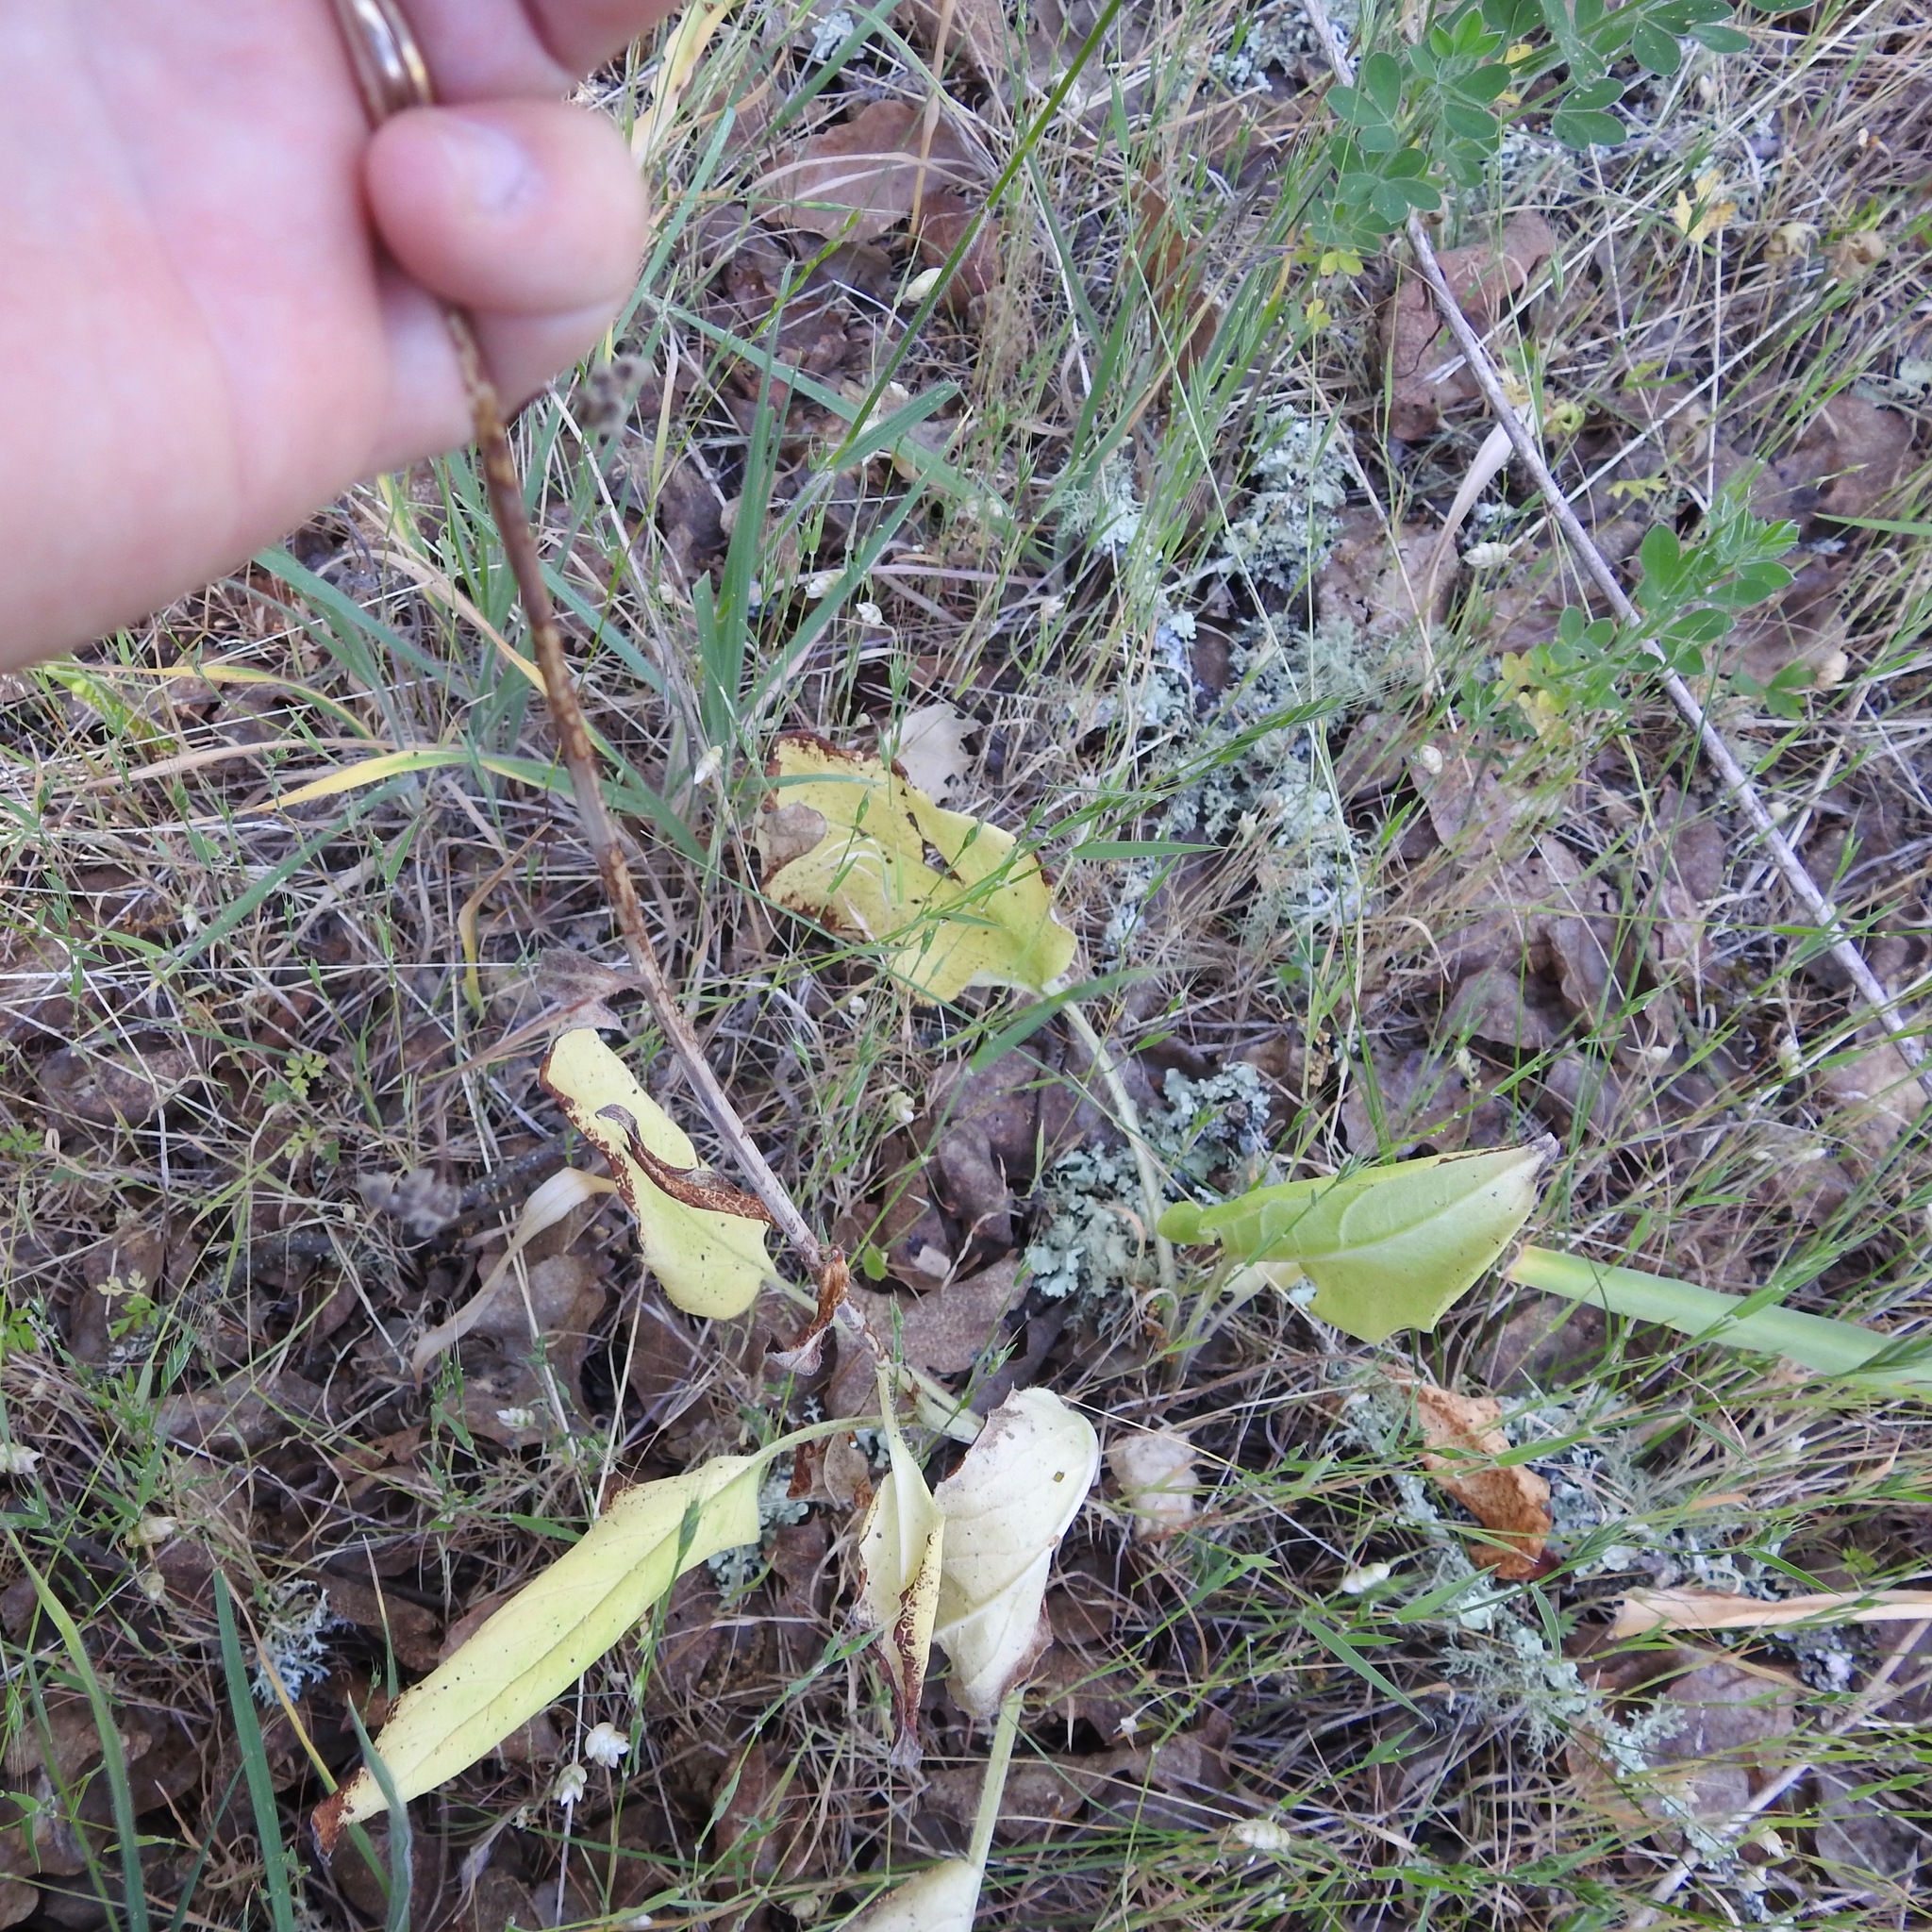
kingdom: Plantae
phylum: Tracheophyta
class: Magnoliopsida
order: Boraginales
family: Boraginaceae
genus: Adelinia
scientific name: Adelinia grande
